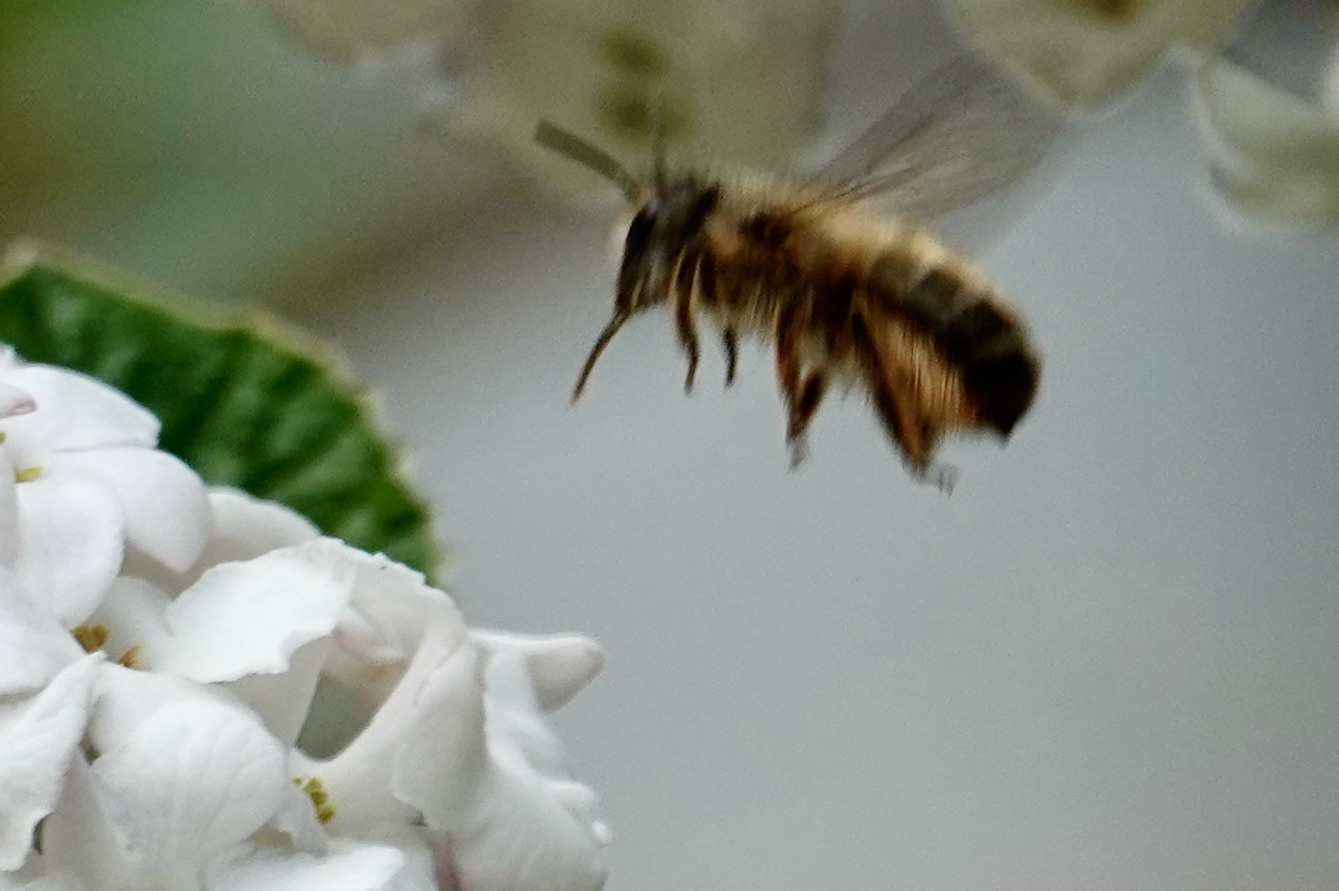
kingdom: Animalia
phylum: Arthropoda
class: Insecta
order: Hymenoptera
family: Megachilidae
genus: Osmia
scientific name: Osmia taurus
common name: Taurus mason bee
